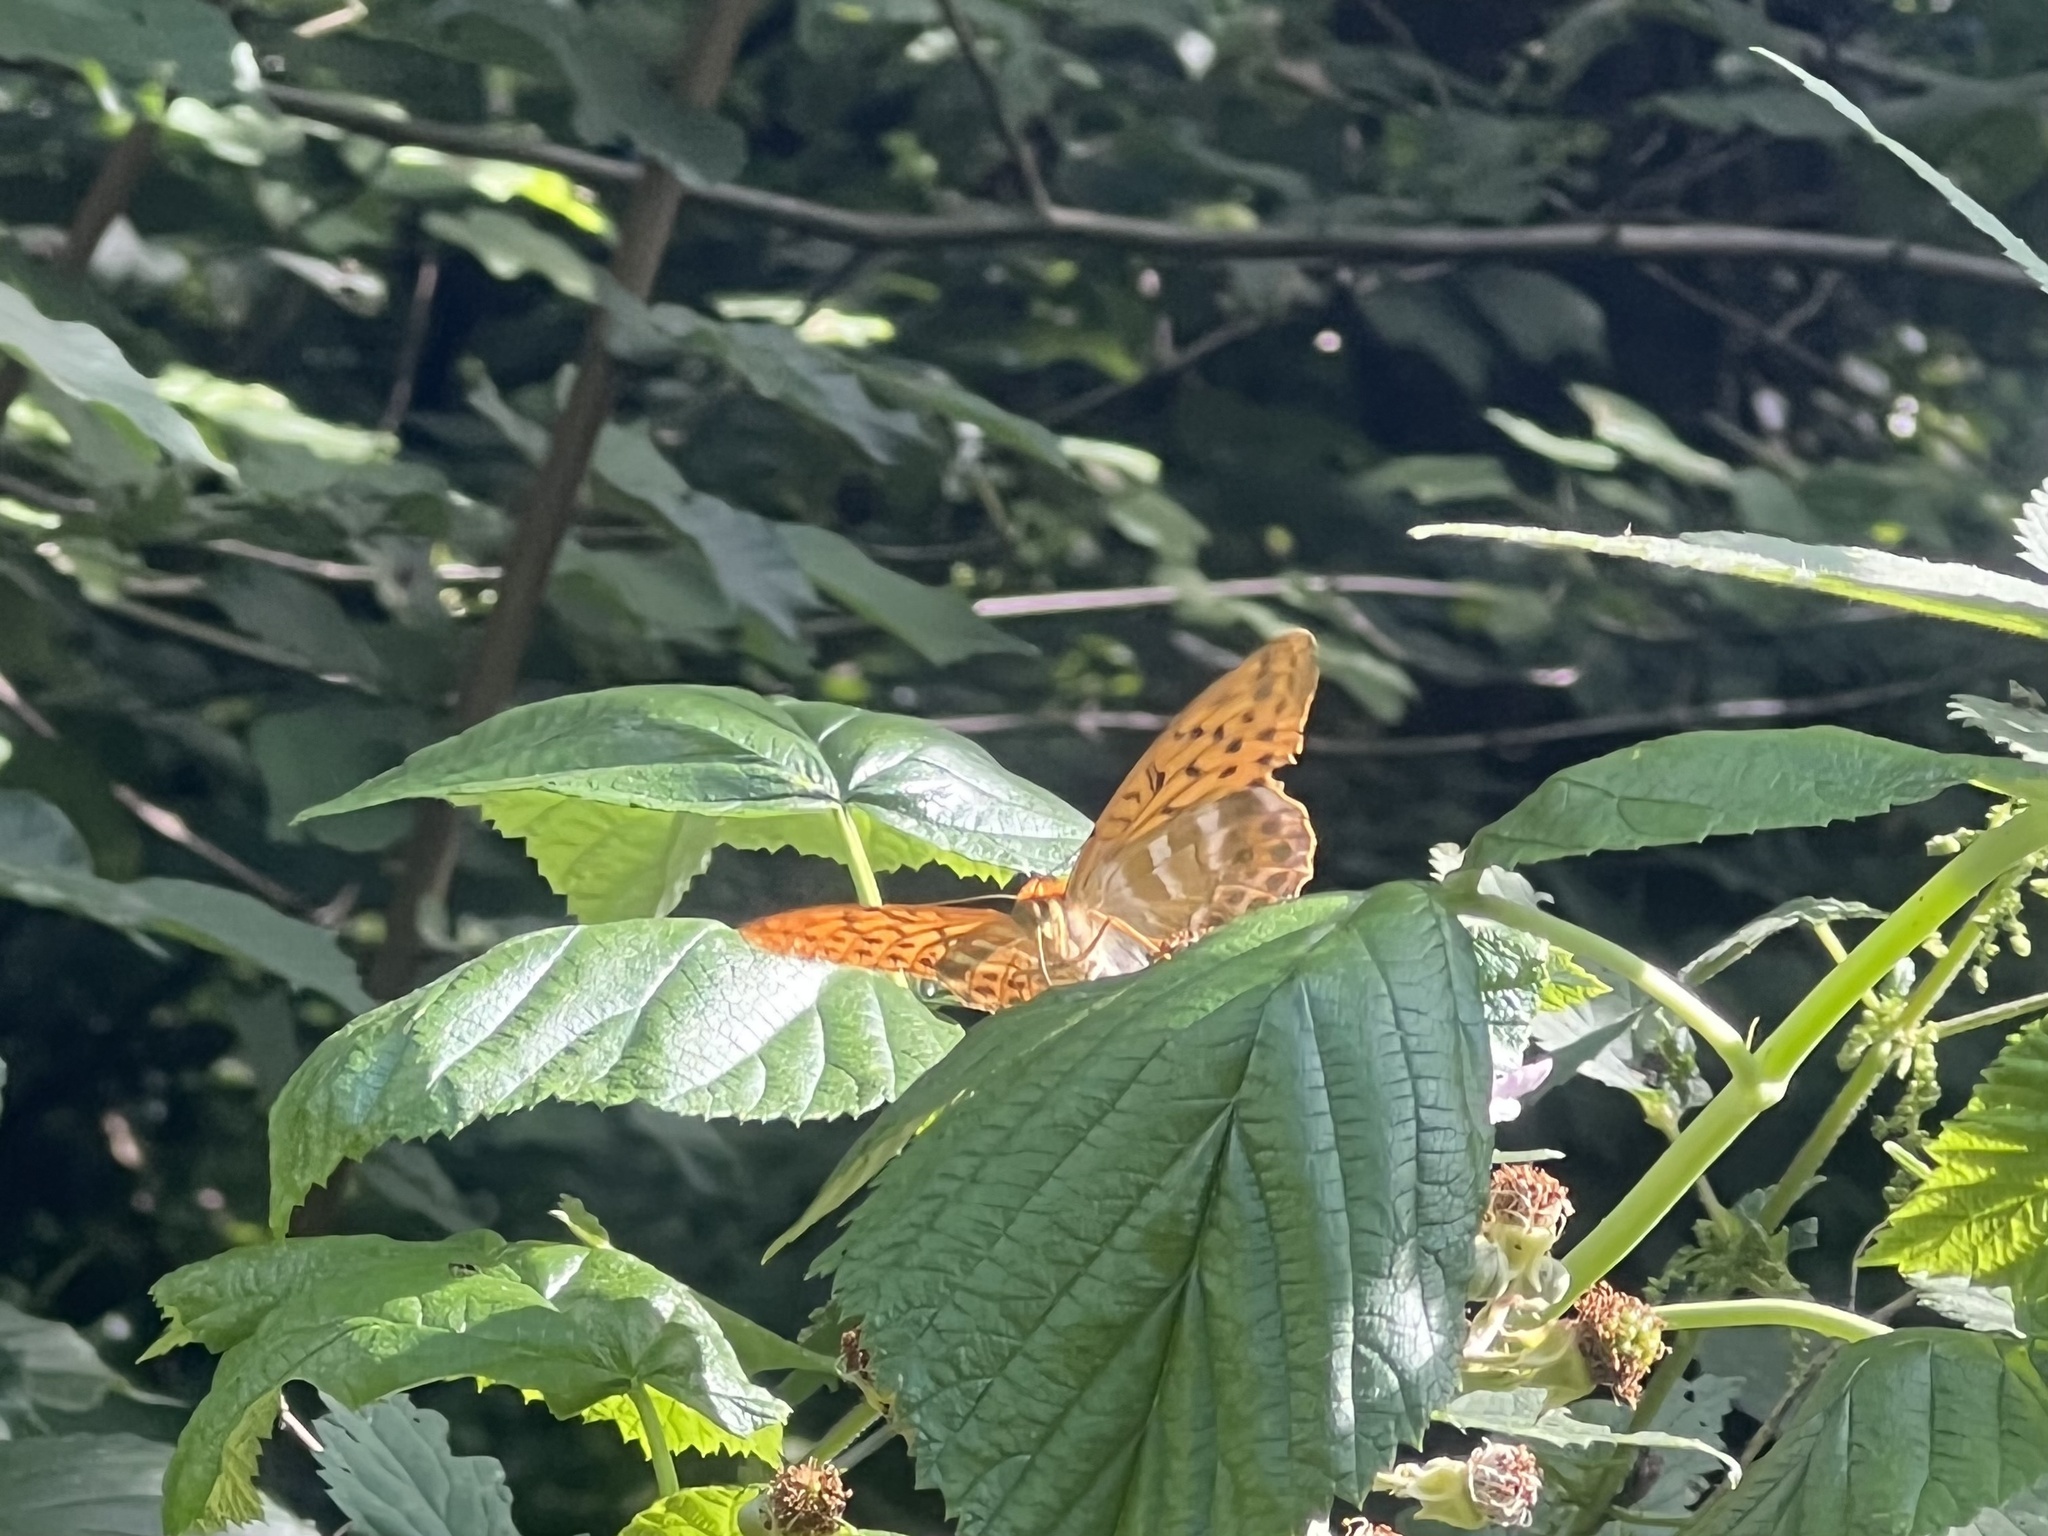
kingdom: Animalia
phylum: Arthropoda
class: Insecta
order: Lepidoptera
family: Nymphalidae
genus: Argynnis
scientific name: Argynnis paphia
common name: Silver-washed fritillary
